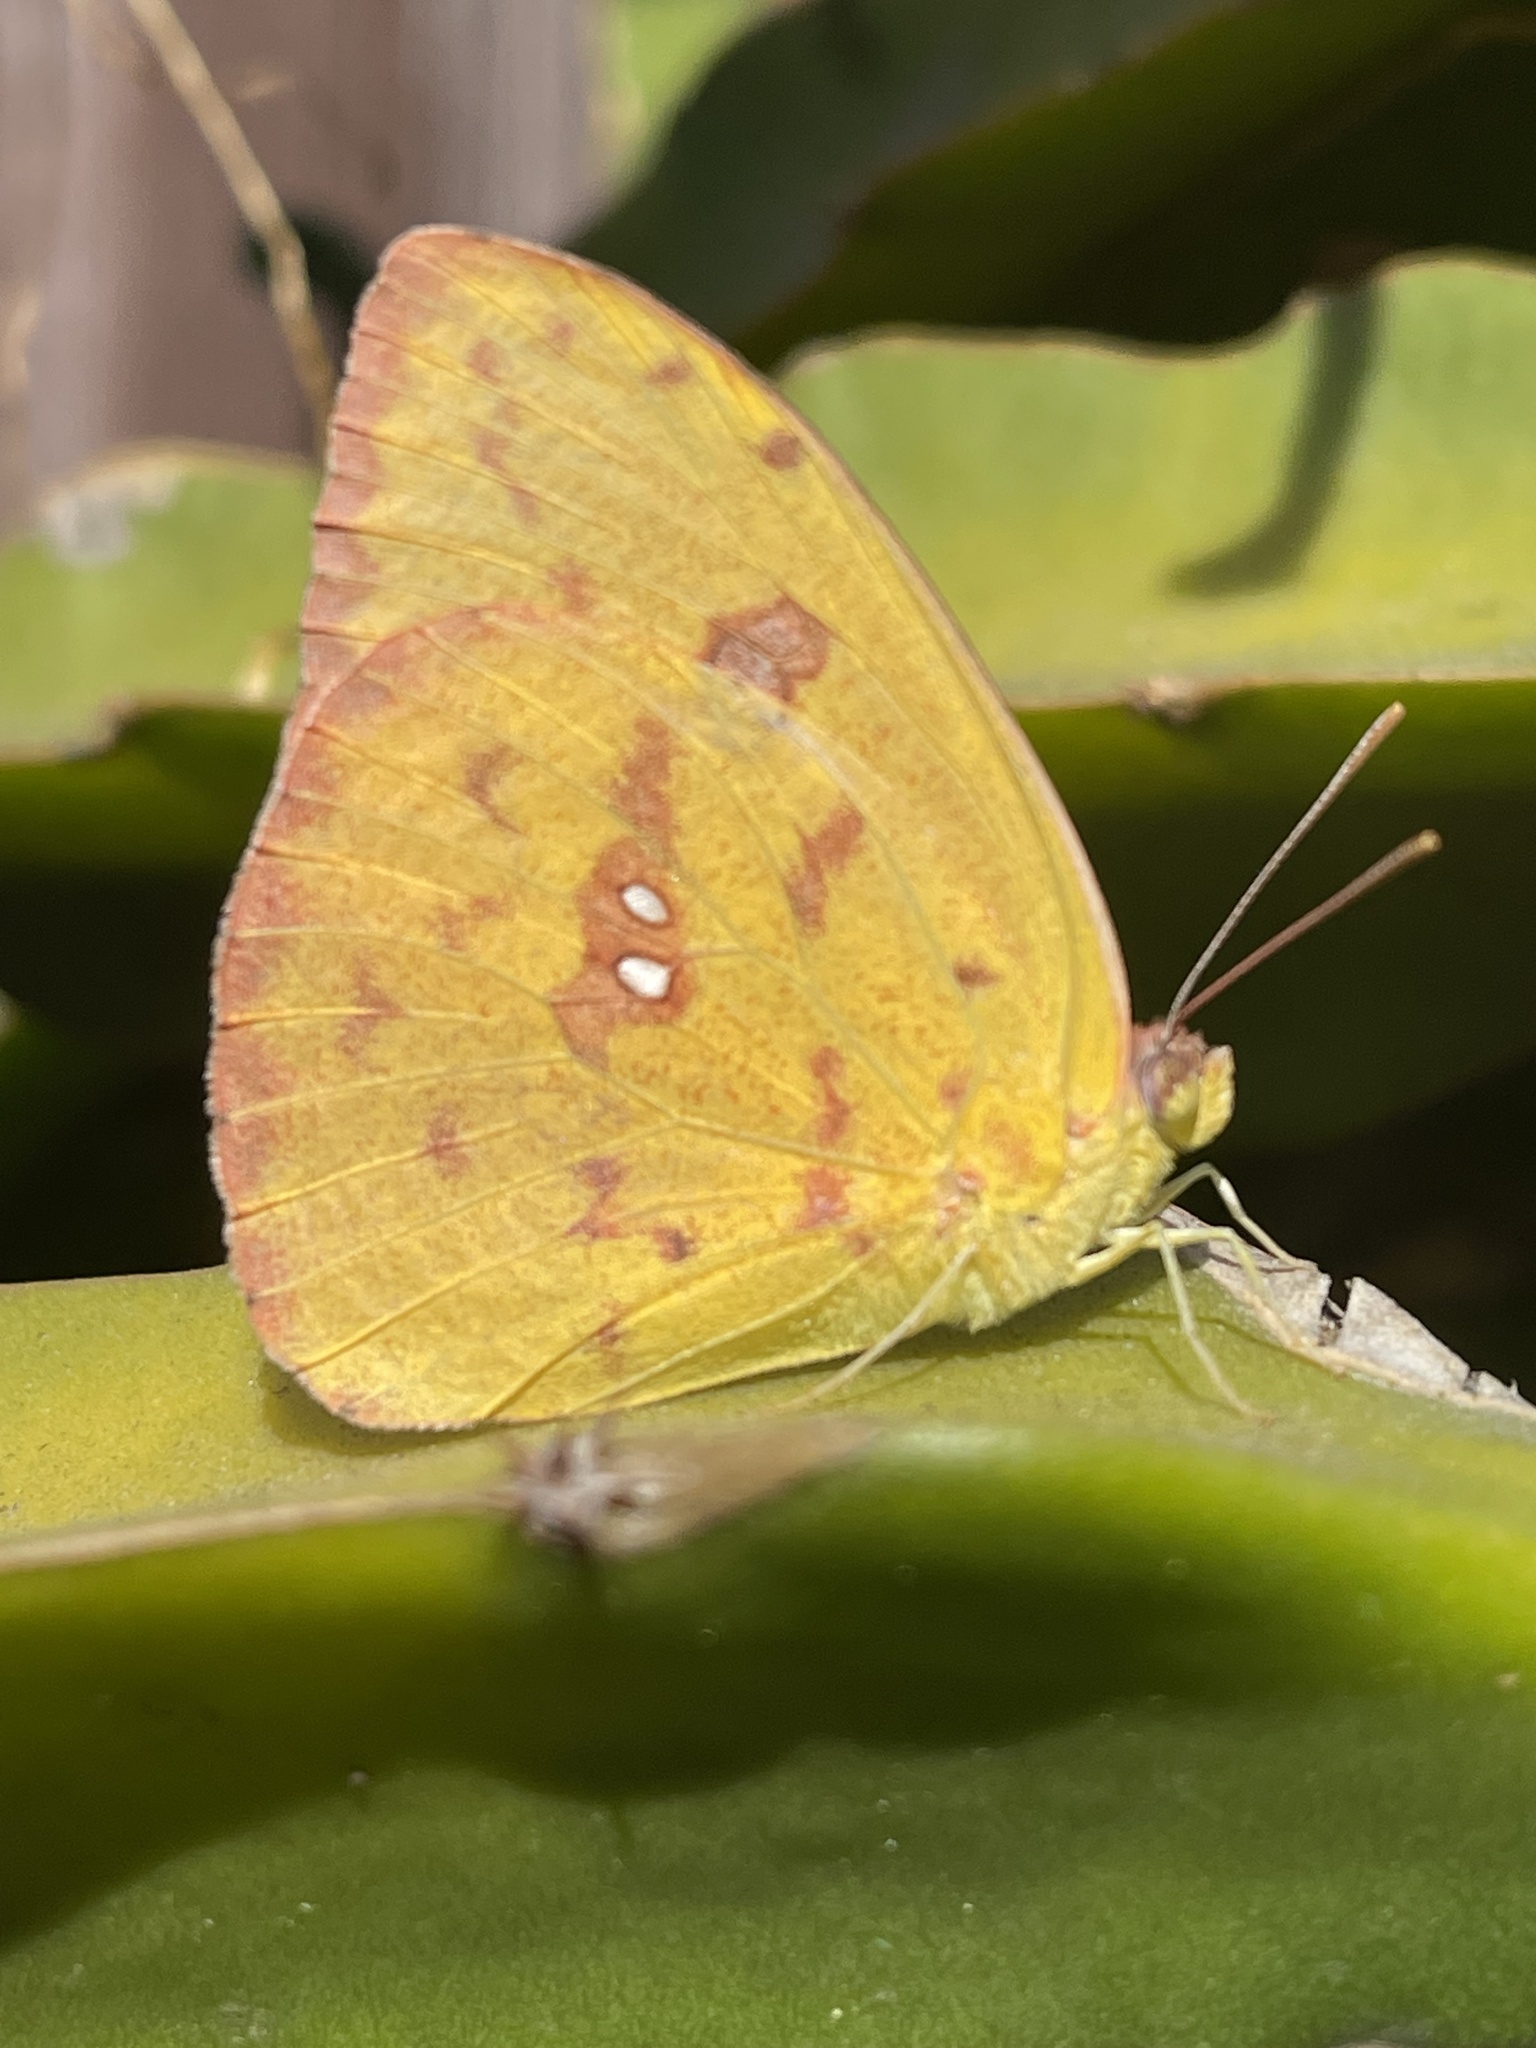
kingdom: Animalia
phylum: Arthropoda
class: Insecta
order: Lepidoptera
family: Pieridae
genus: Phoebis
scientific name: Phoebis sennae
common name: Cloudless sulphur
